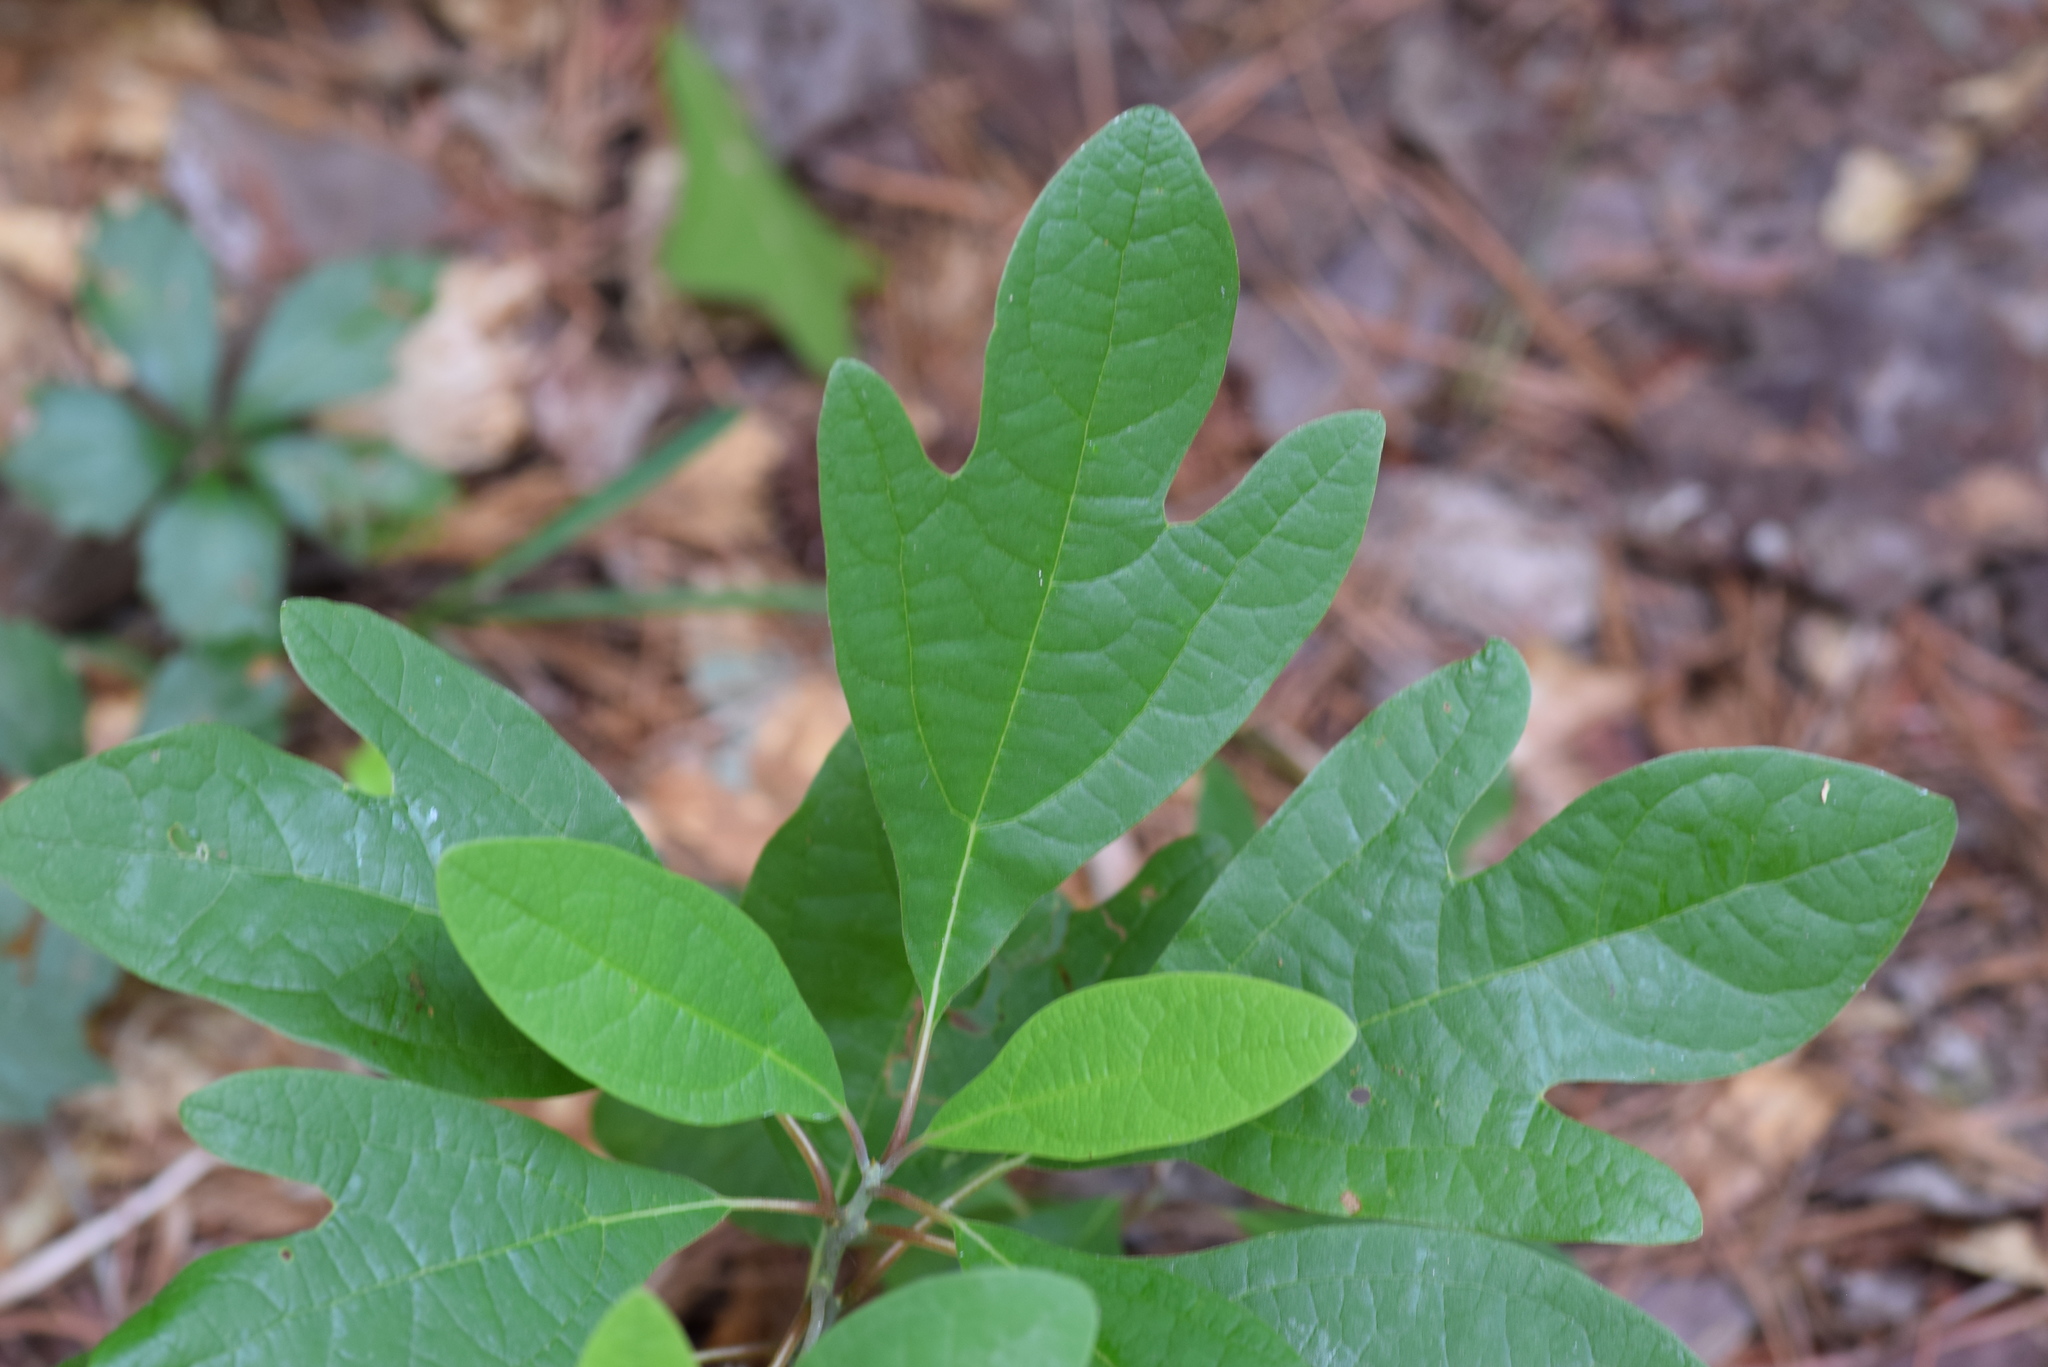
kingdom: Plantae
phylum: Tracheophyta
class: Magnoliopsida
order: Laurales
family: Lauraceae
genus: Sassafras
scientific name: Sassafras albidum
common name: Sassafras
